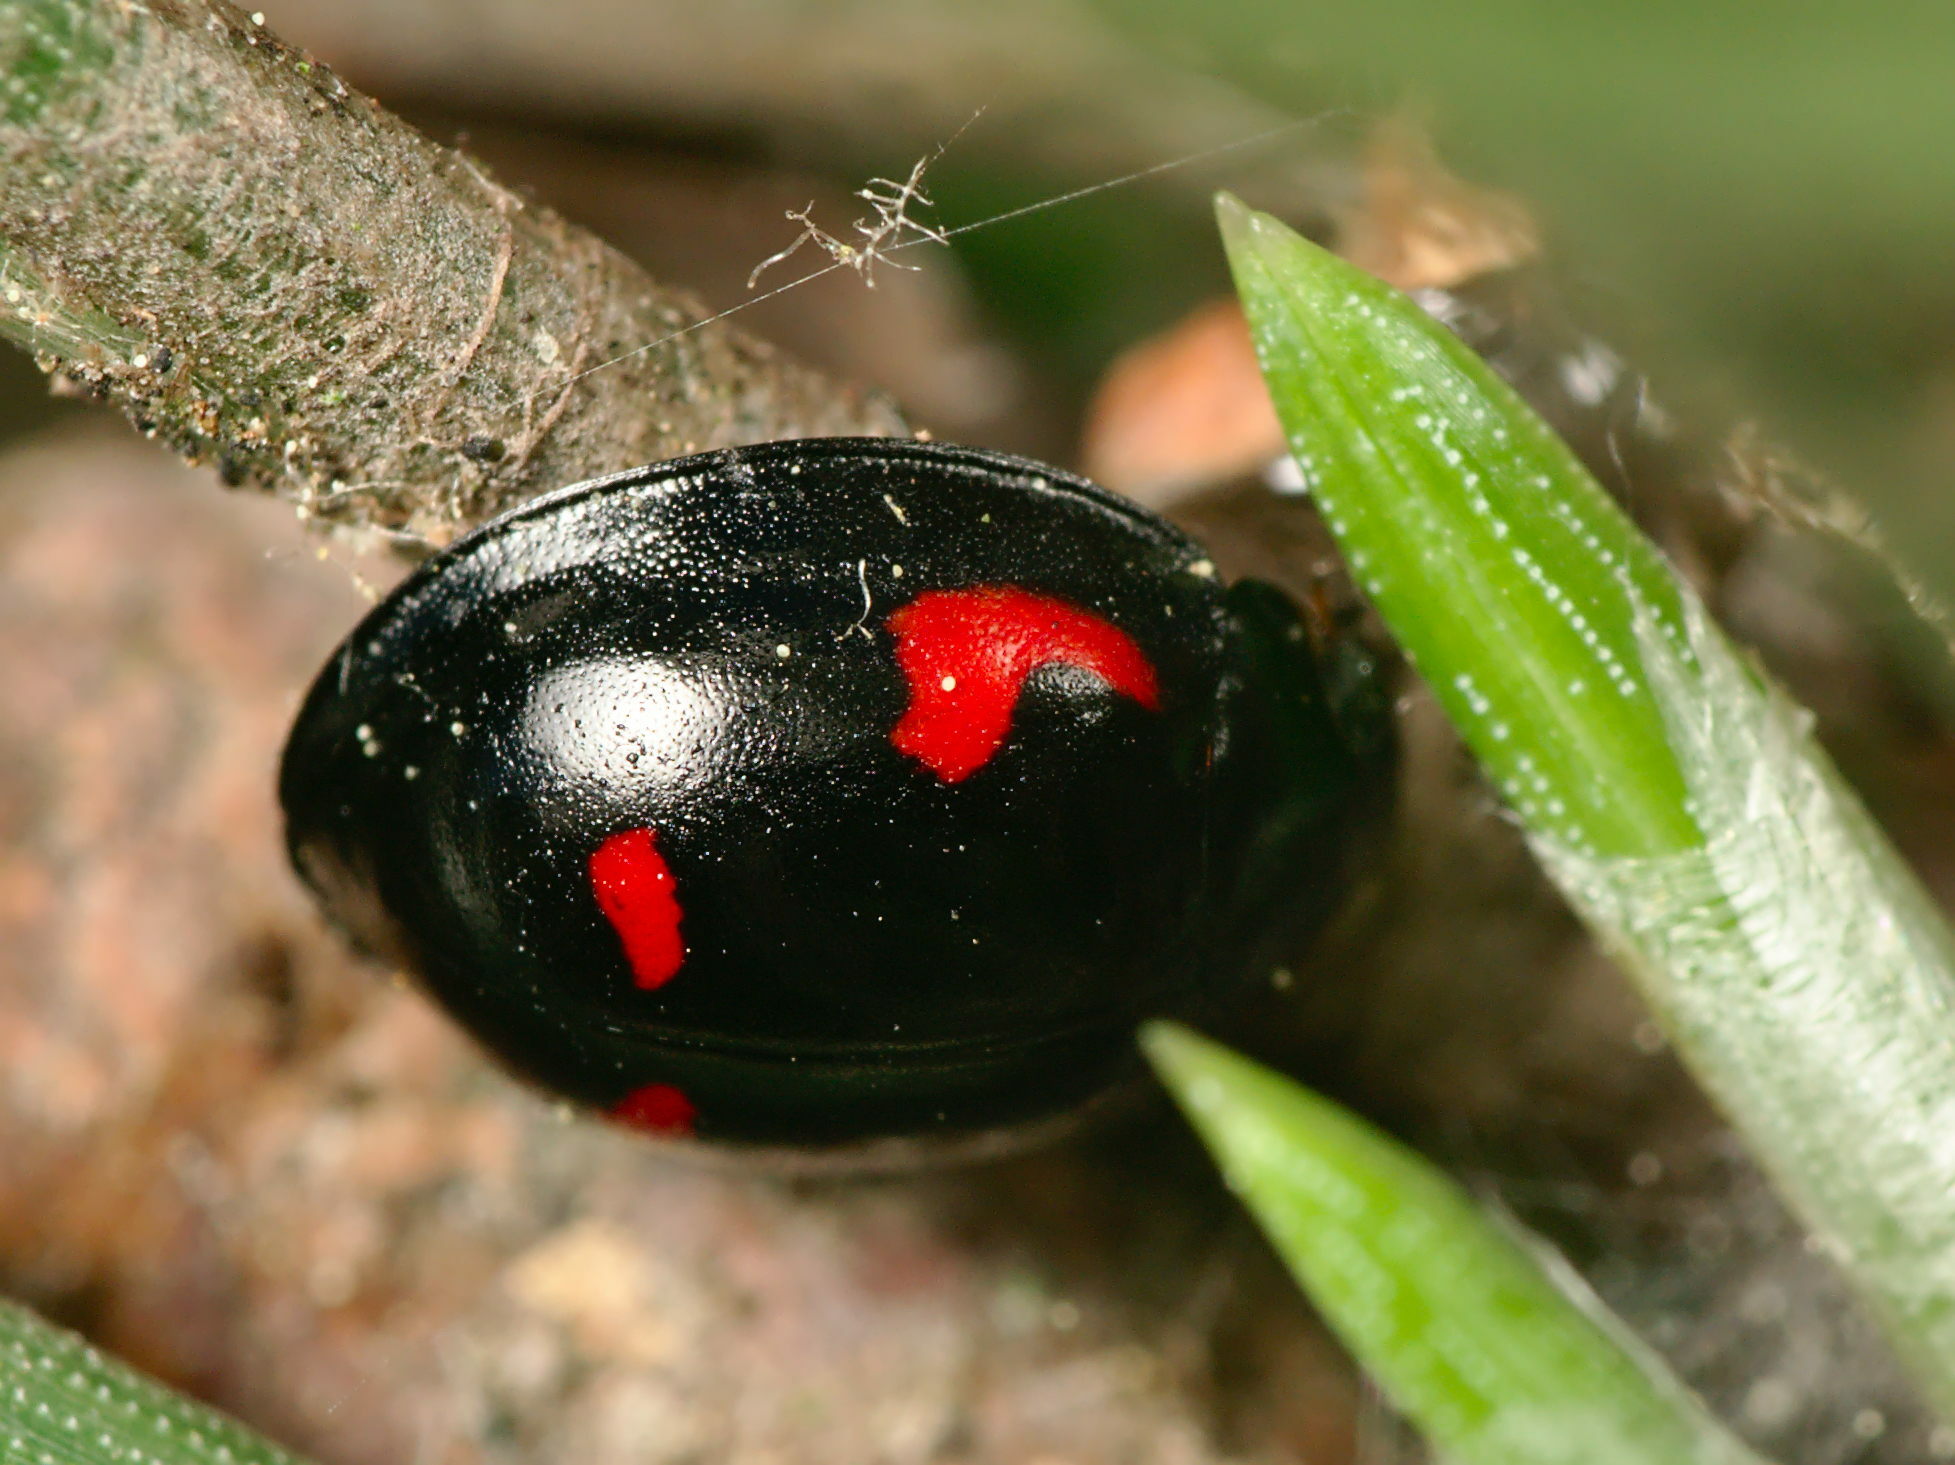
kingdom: Animalia
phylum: Arthropoda
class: Insecta
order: Coleoptera
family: Coccinellidae
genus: Brumus
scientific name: Brumus quadripustulatus
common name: Ladybird beetle
